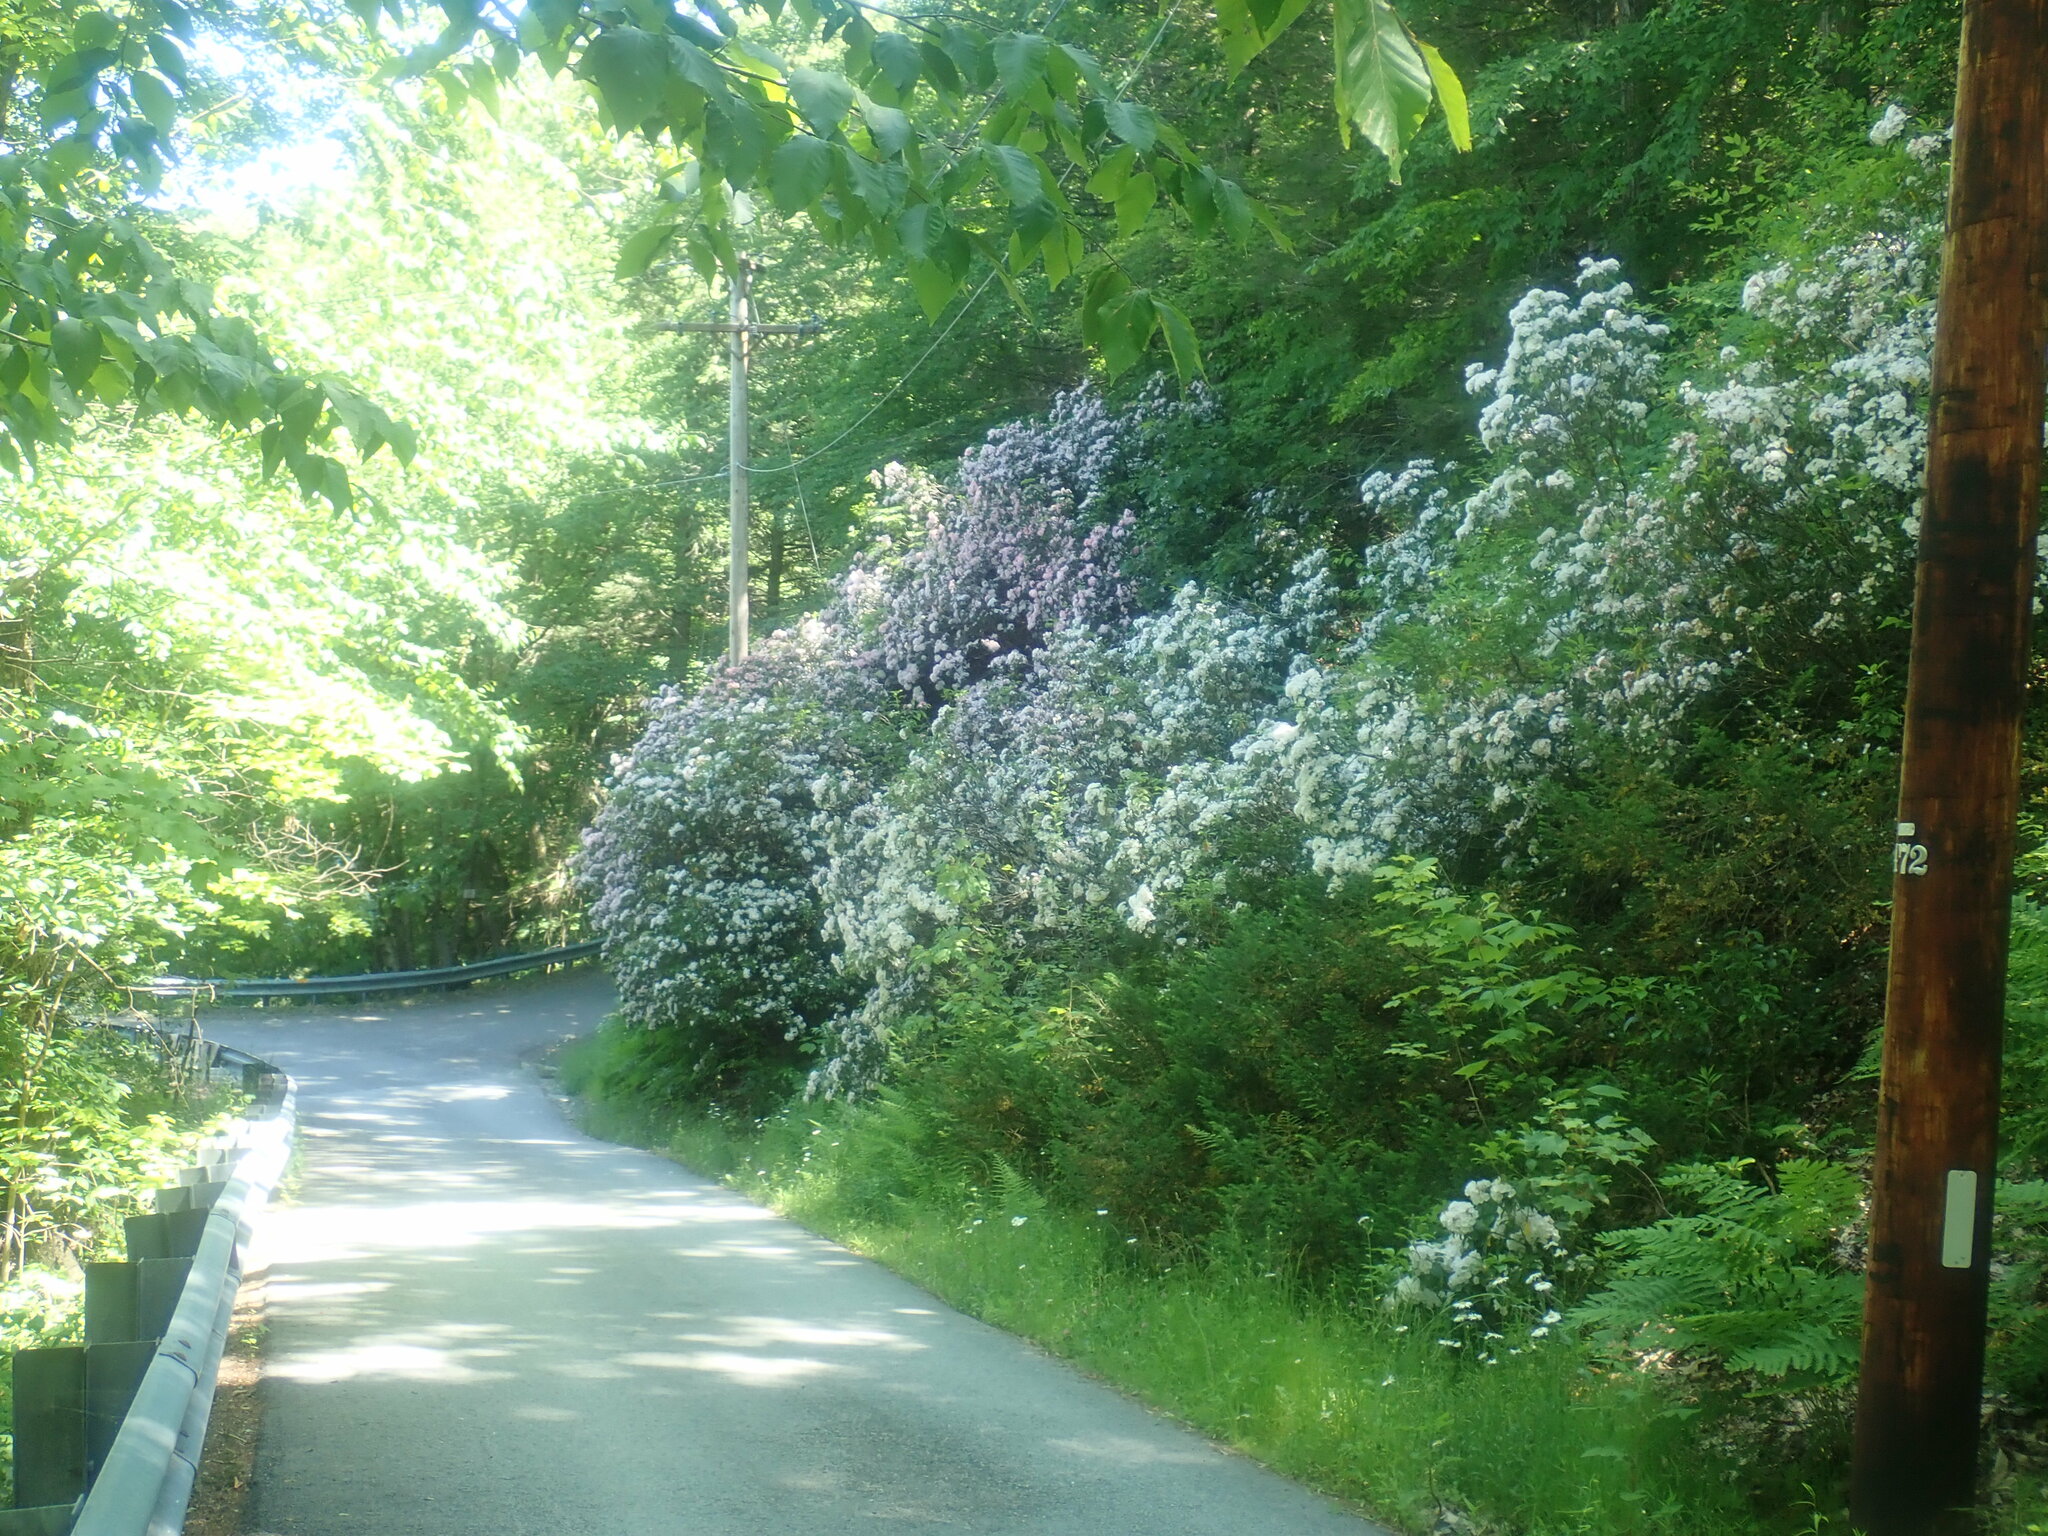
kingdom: Plantae
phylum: Tracheophyta
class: Magnoliopsida
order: Ericales
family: Ericaceae
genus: Kalmia
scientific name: Kalmia latifolia
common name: Mountain-laurel
